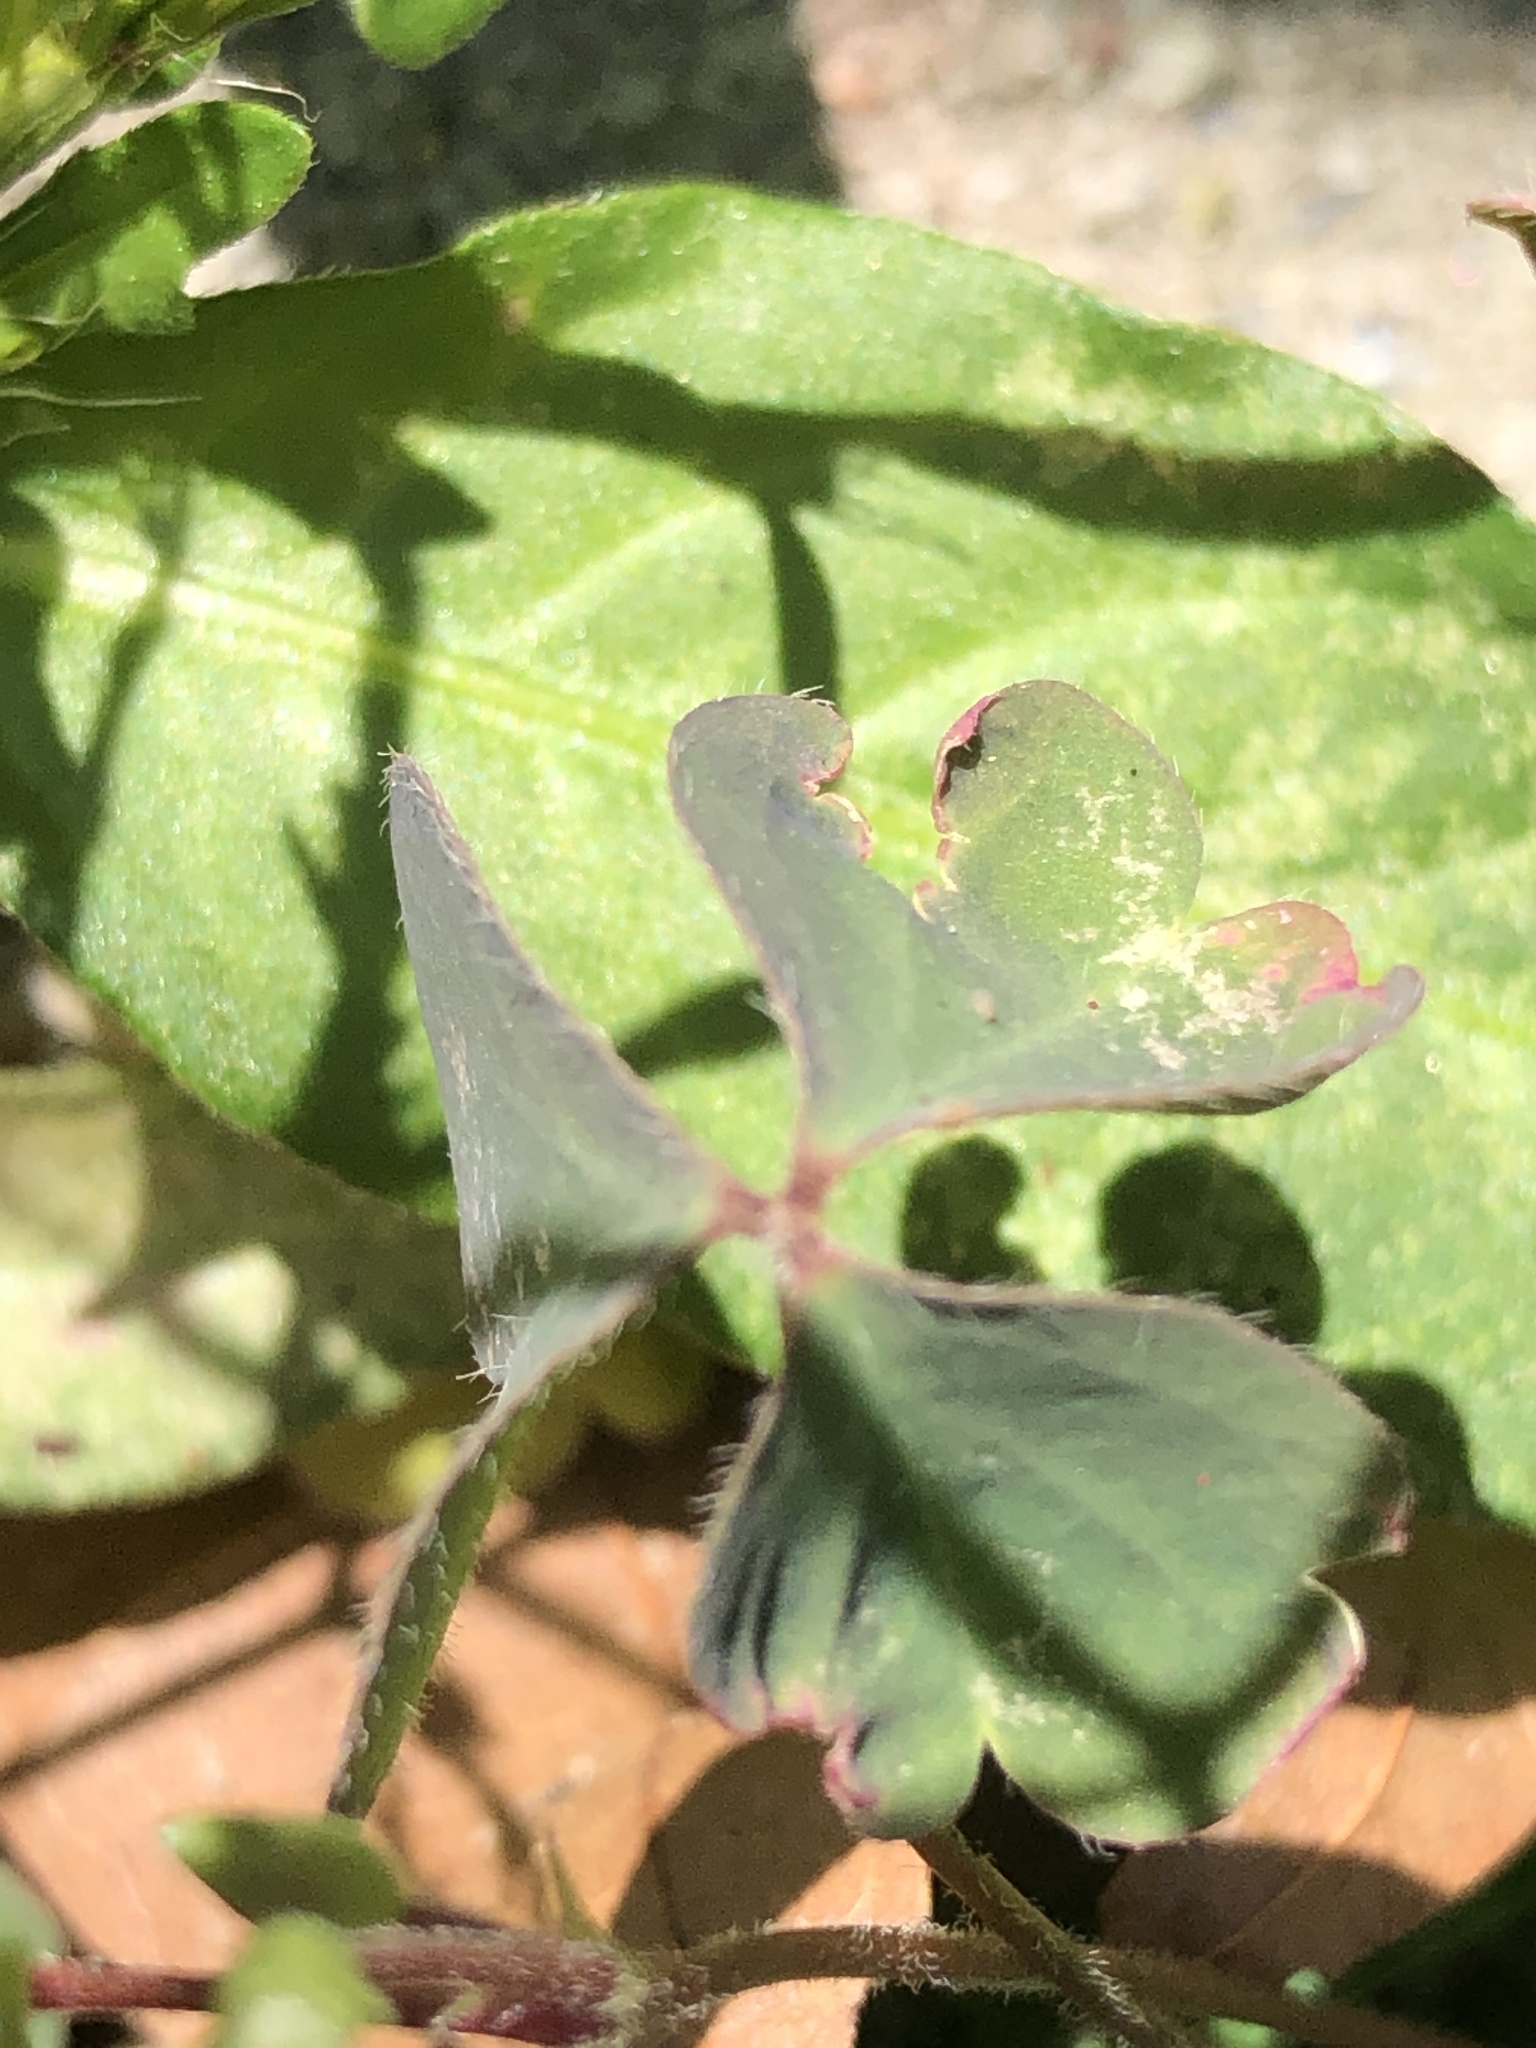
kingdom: Plantae
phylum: Tracheophyta
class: Magnoliopsida
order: Oxalidales
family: Oxalidaceae
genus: Oxalis
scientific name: Oxalis corniculata
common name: Procumbent yellow-sorrel
